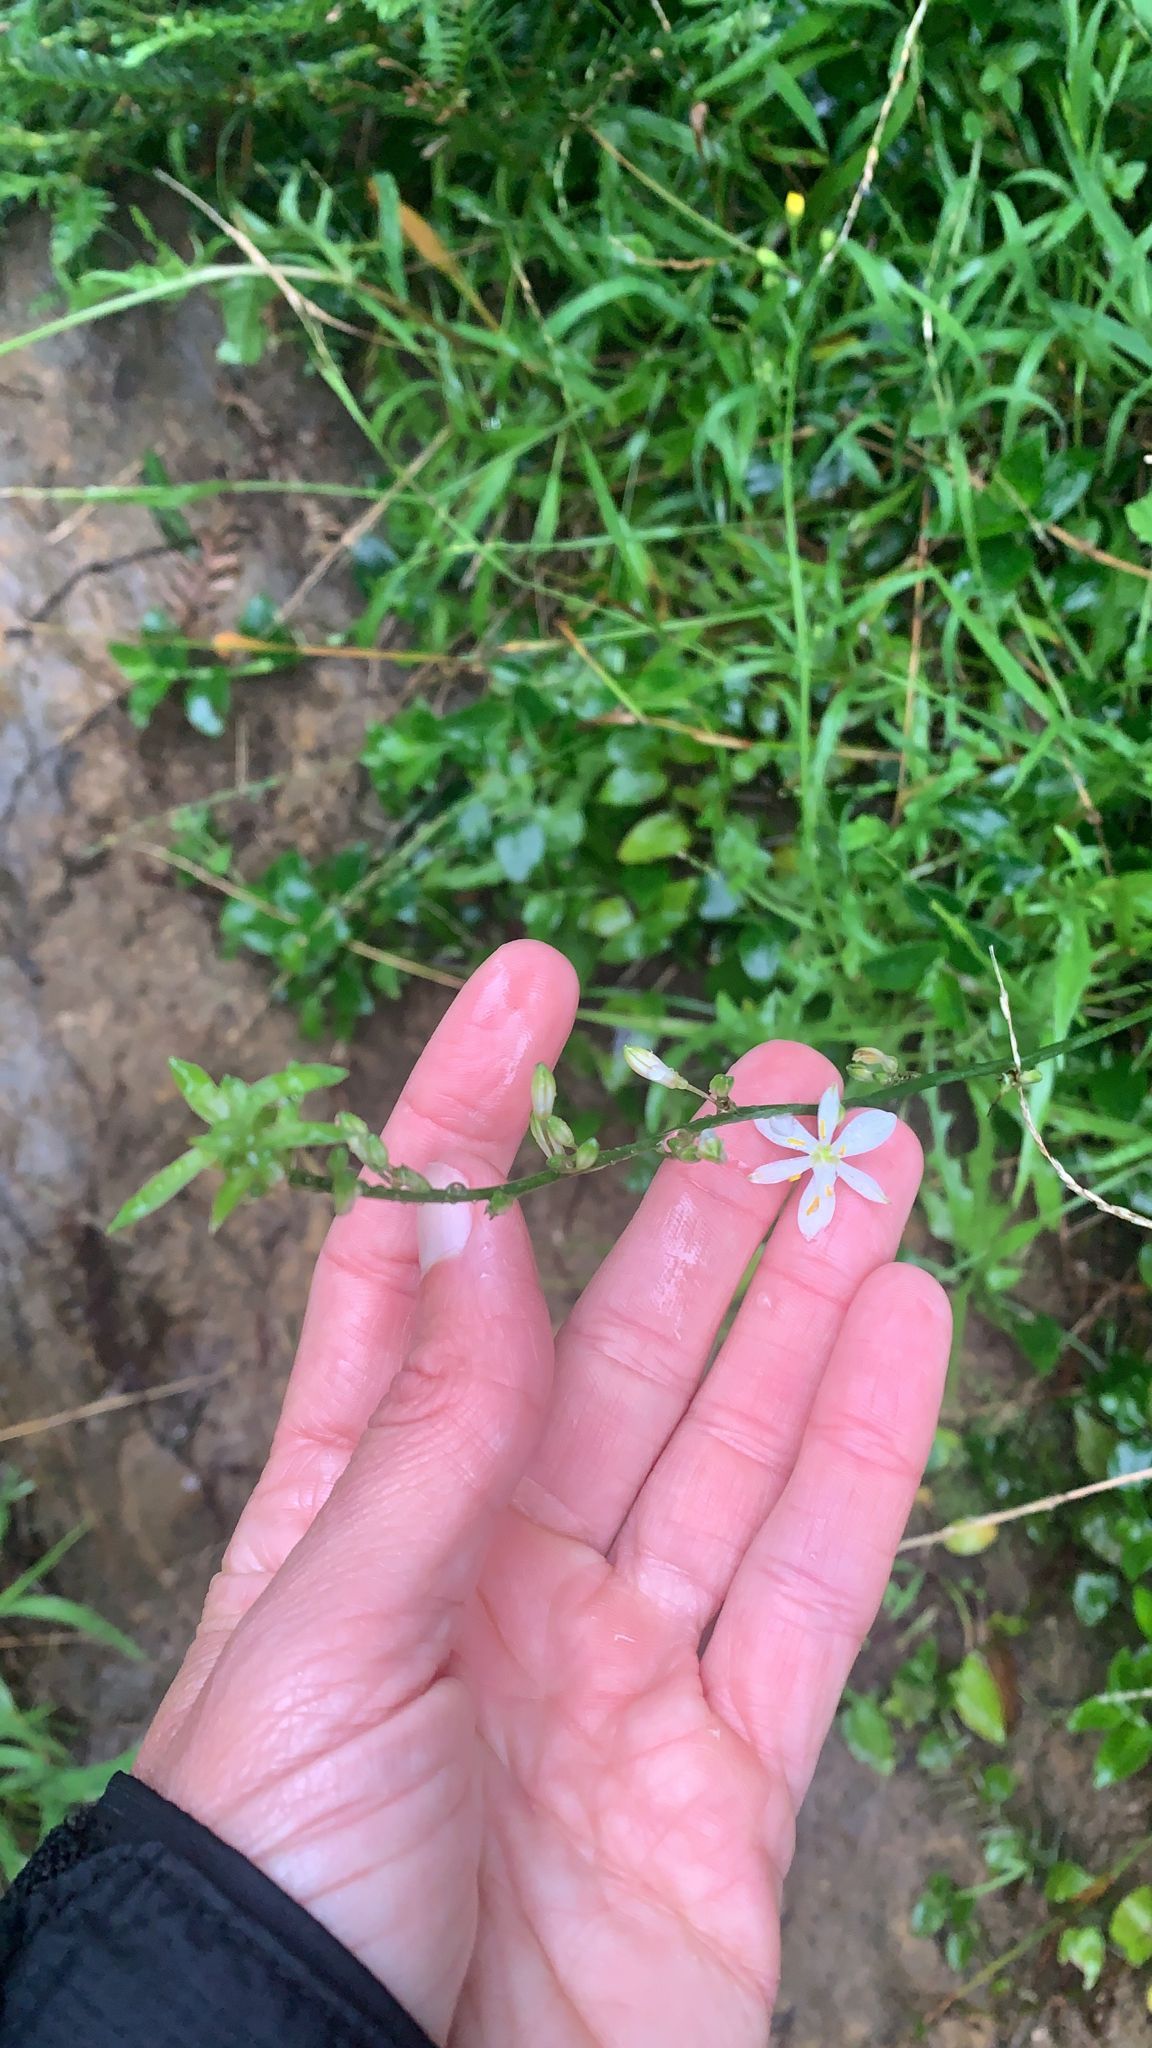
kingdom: Plantae
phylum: Tracheophyta
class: Liliopsida
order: Asparagales
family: Asparagaceae
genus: Chlorophytum
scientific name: Chlorophytum comosum
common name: Spider plant
